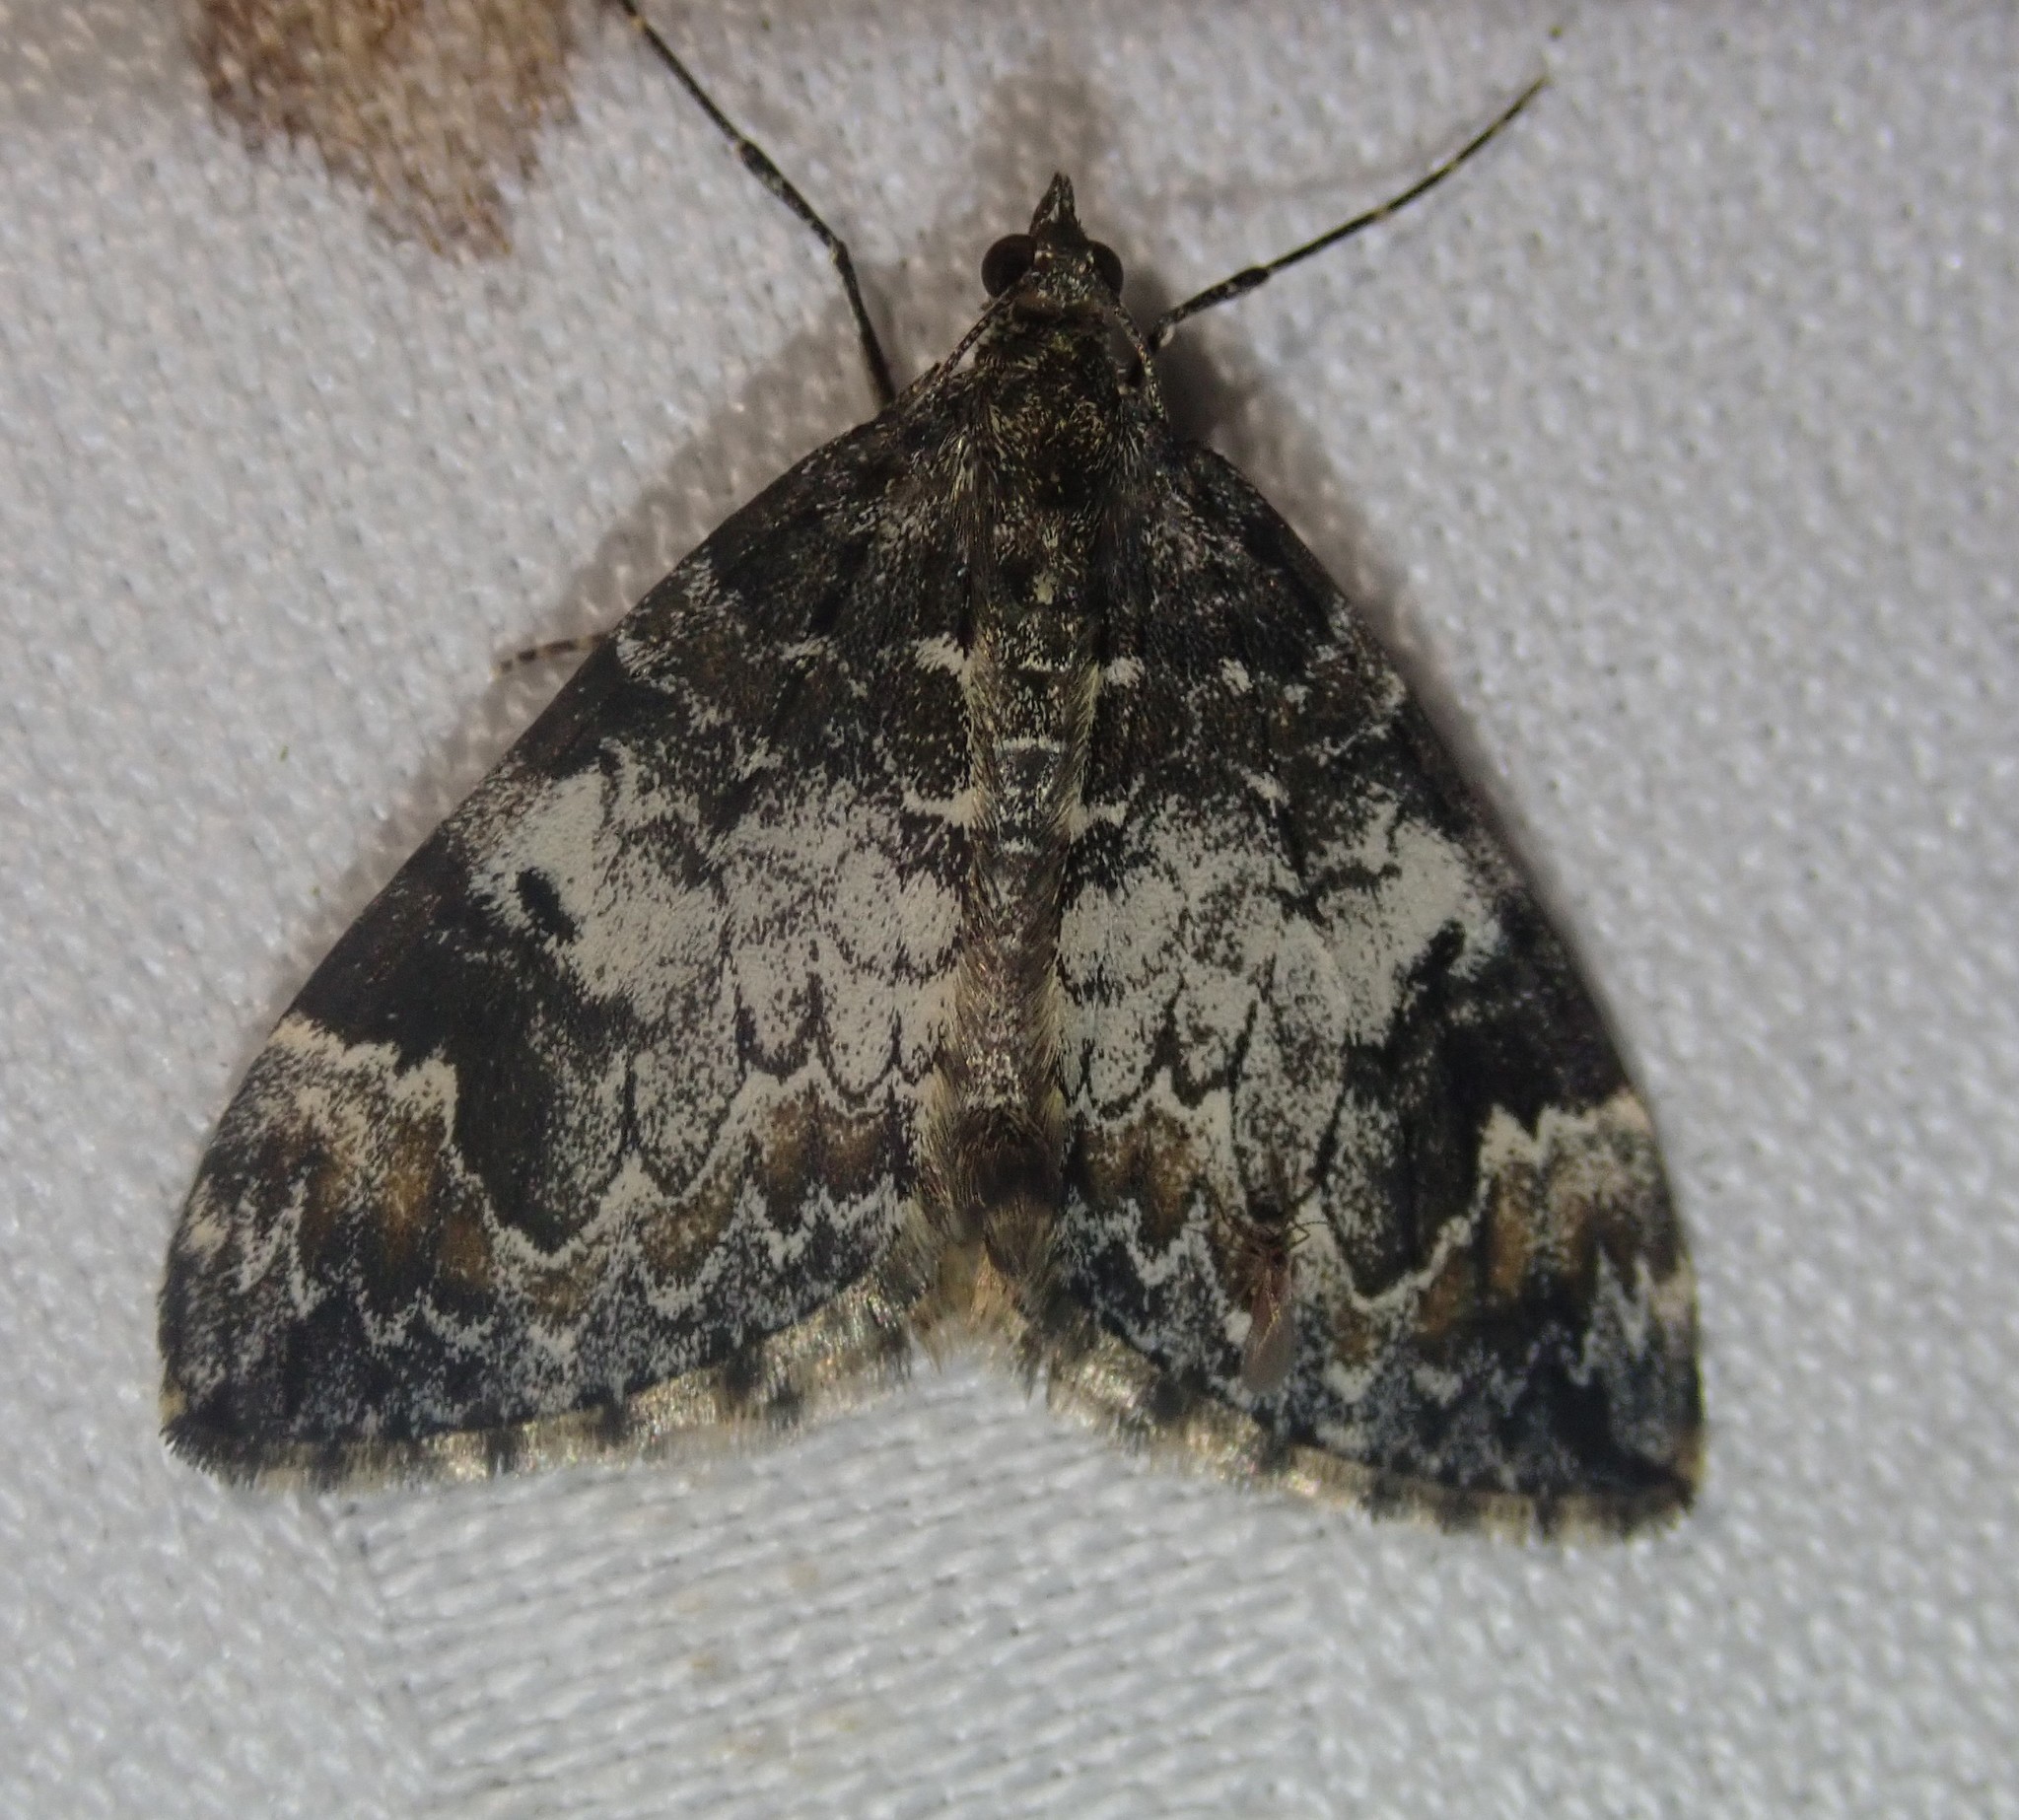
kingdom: Animalia
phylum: Arthropoda
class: Insecta
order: Lepidoptera
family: Geometridae
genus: Dysstroma
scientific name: Dysstroma truncata
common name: Common marbled carpet
